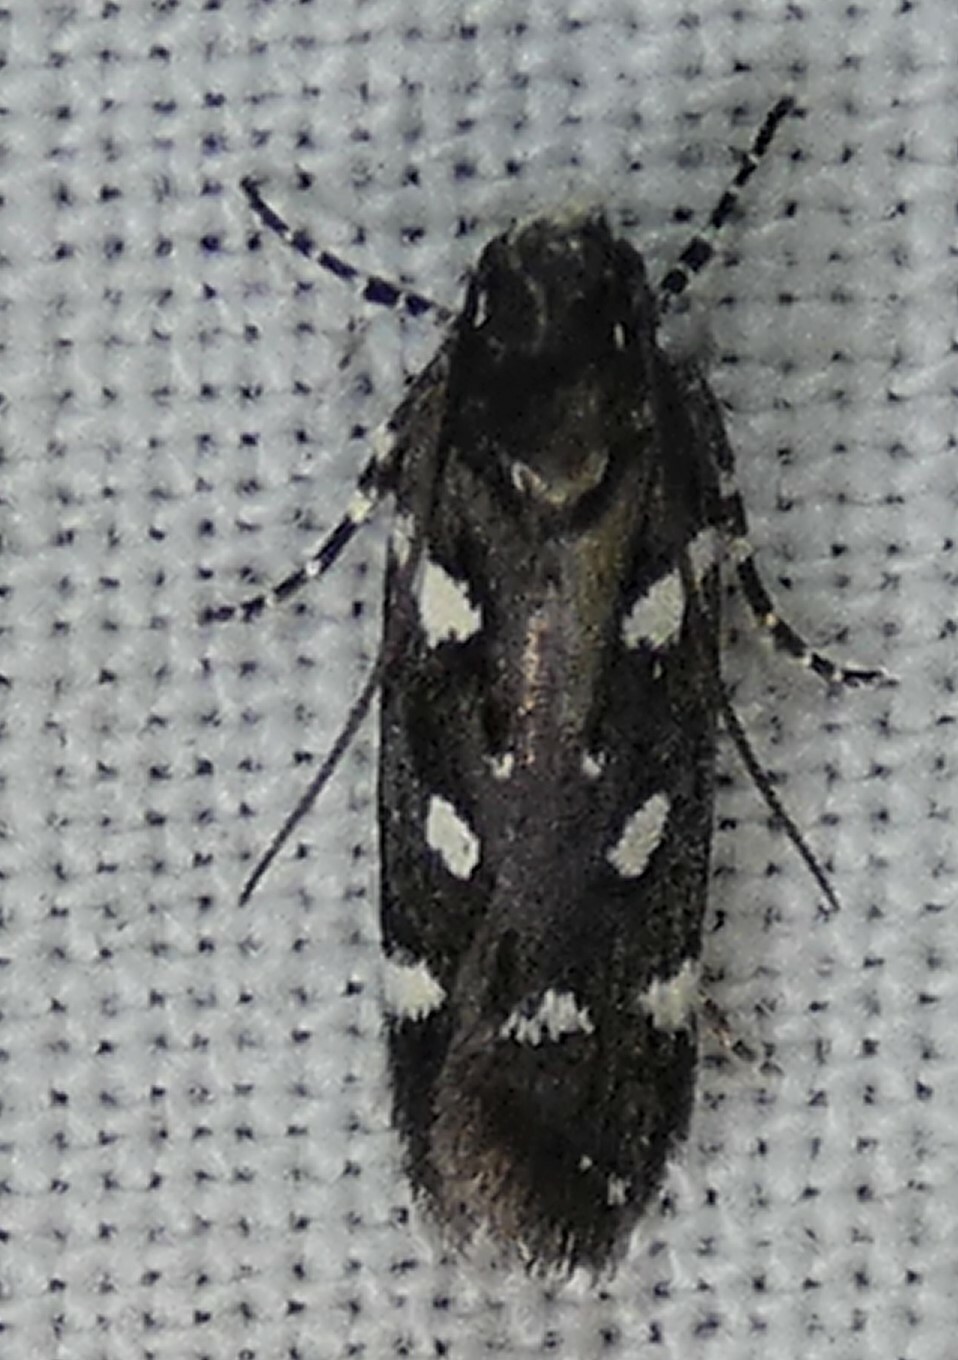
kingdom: Animalia
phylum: Arthropoda
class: Insecta
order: Lepidoptera
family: Gelechiidae
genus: Aroga
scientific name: Aroga compositella
